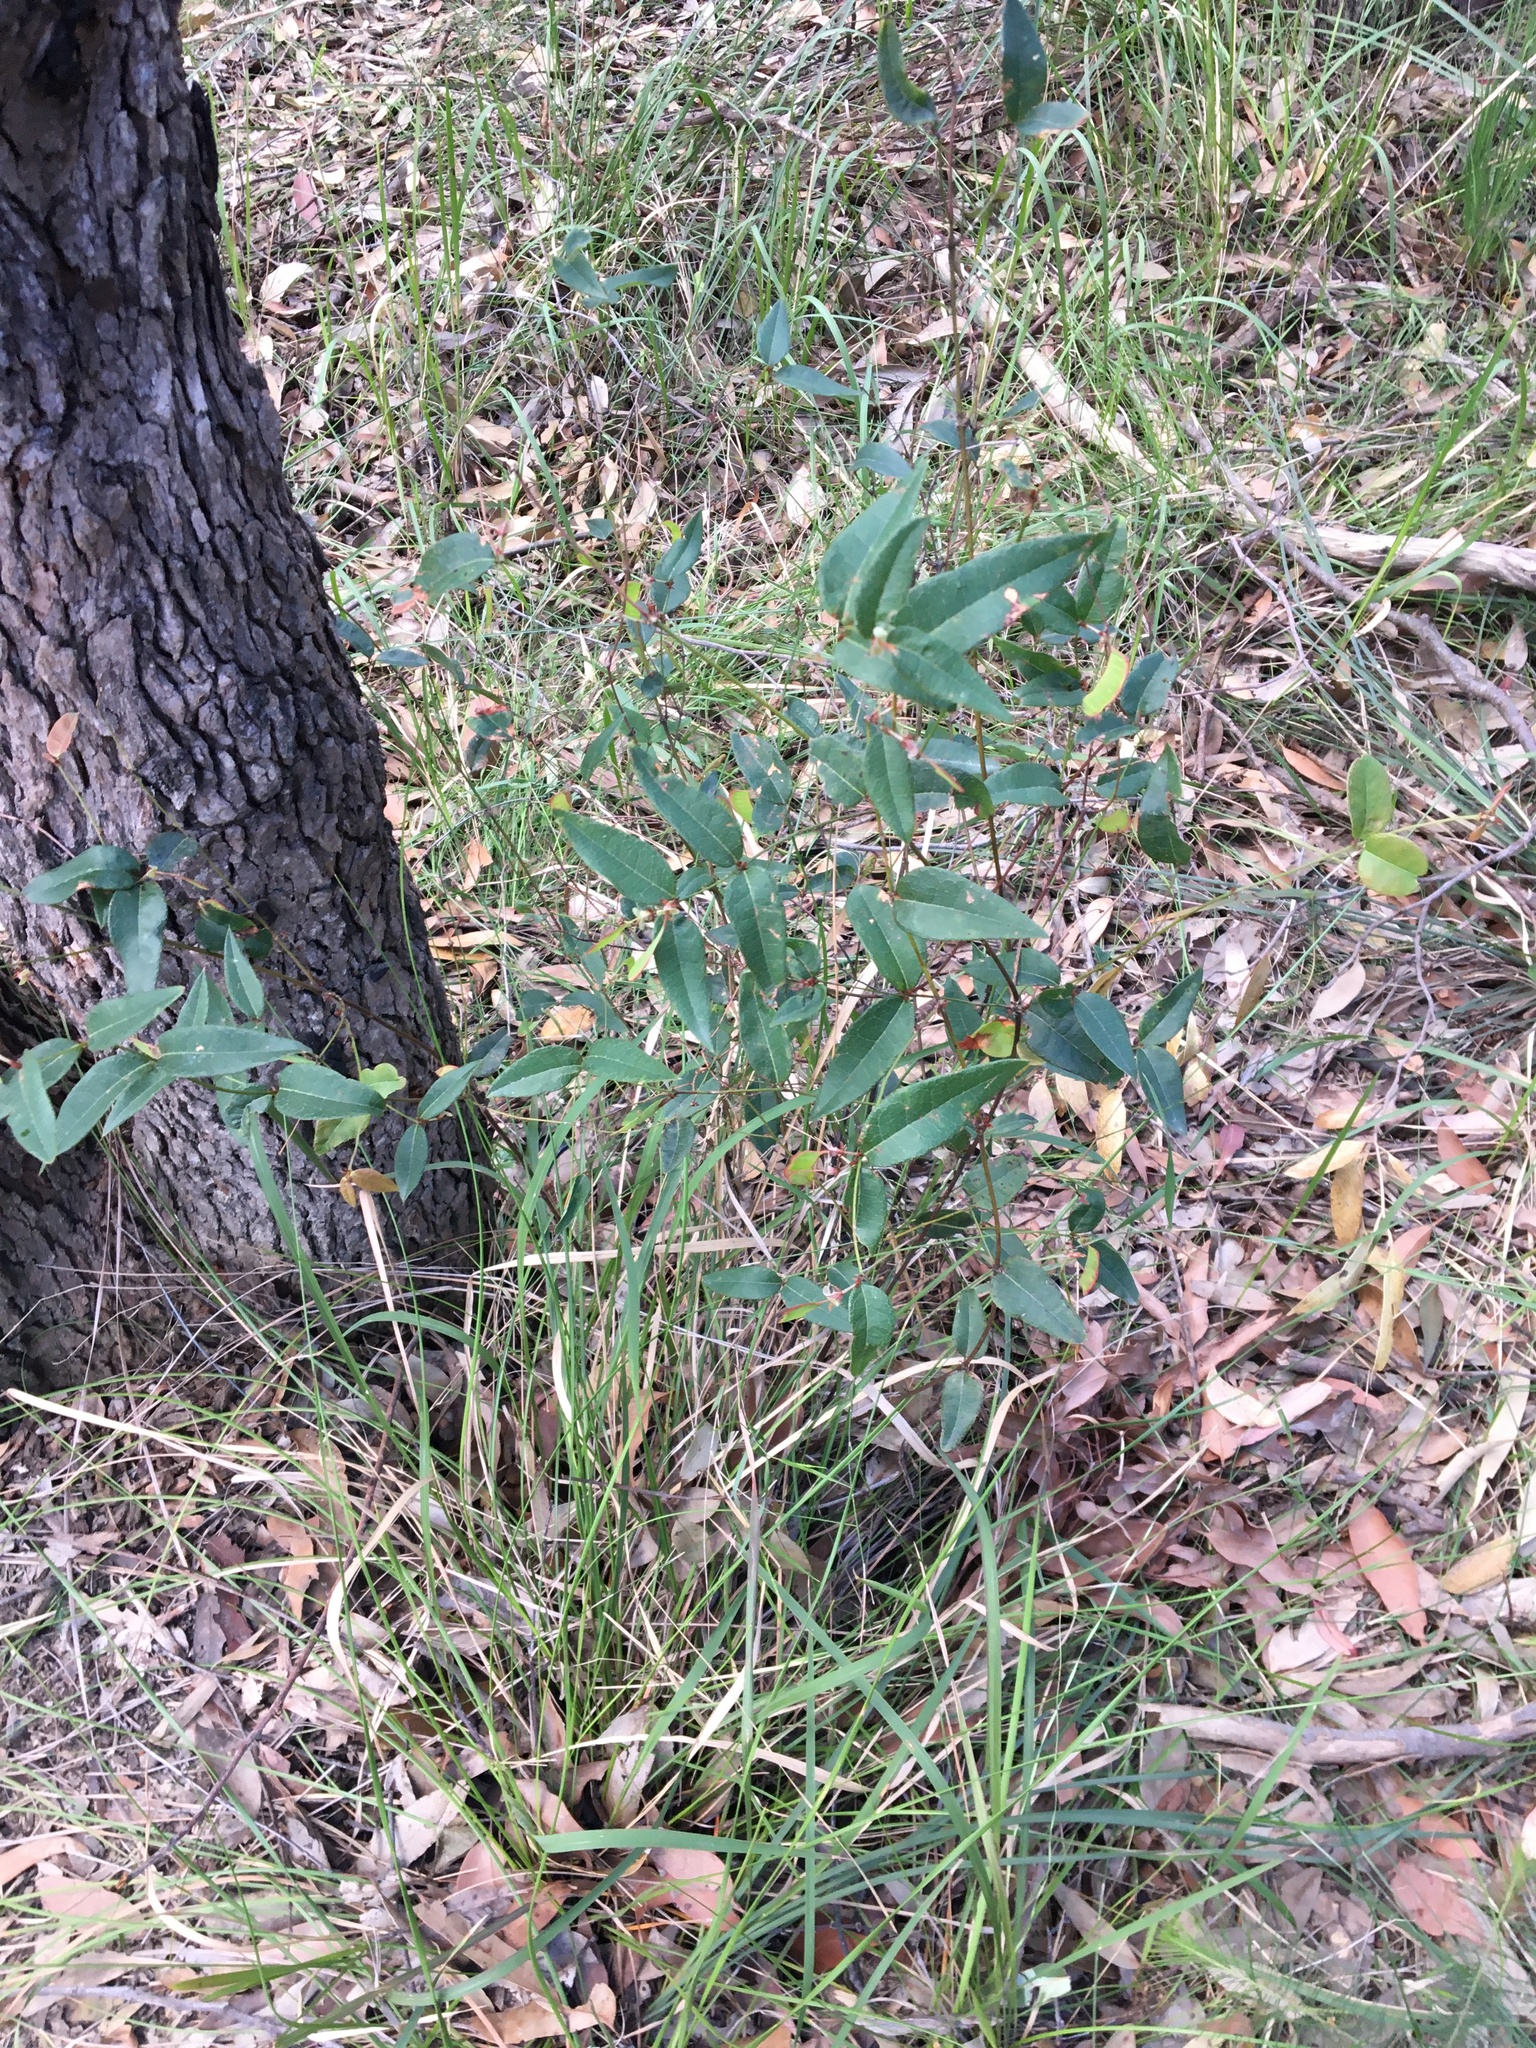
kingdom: Plantae
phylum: Tracheophyta
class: Magnoliopsida
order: Fabales
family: Fabaceae
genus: Platylobium
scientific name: Platylobium formosum
